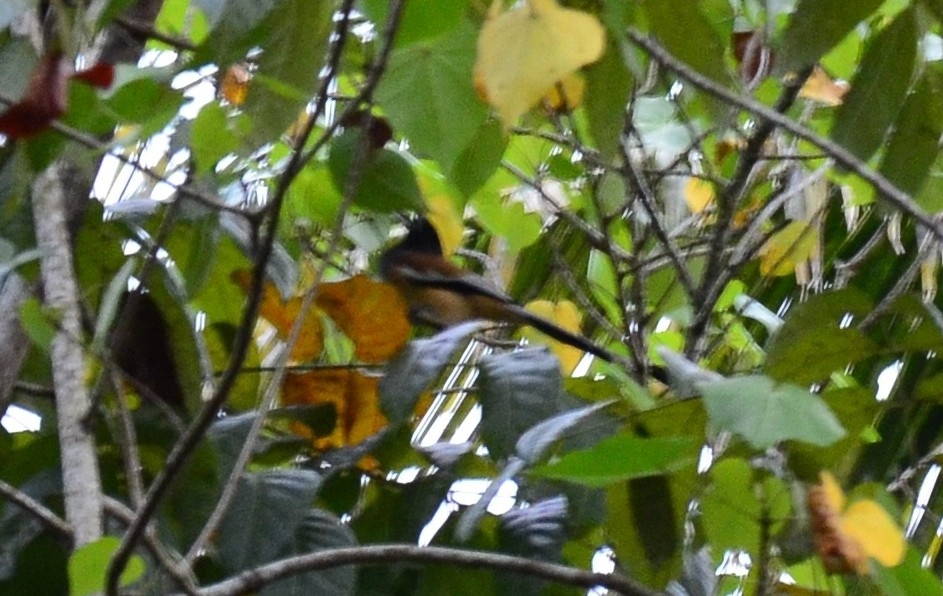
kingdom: Animalia
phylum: Chordata
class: Aves
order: Passeriformes
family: Corvidae
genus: Dendrocitta
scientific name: Dendrocitta vagabunda
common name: Rufous treepie
